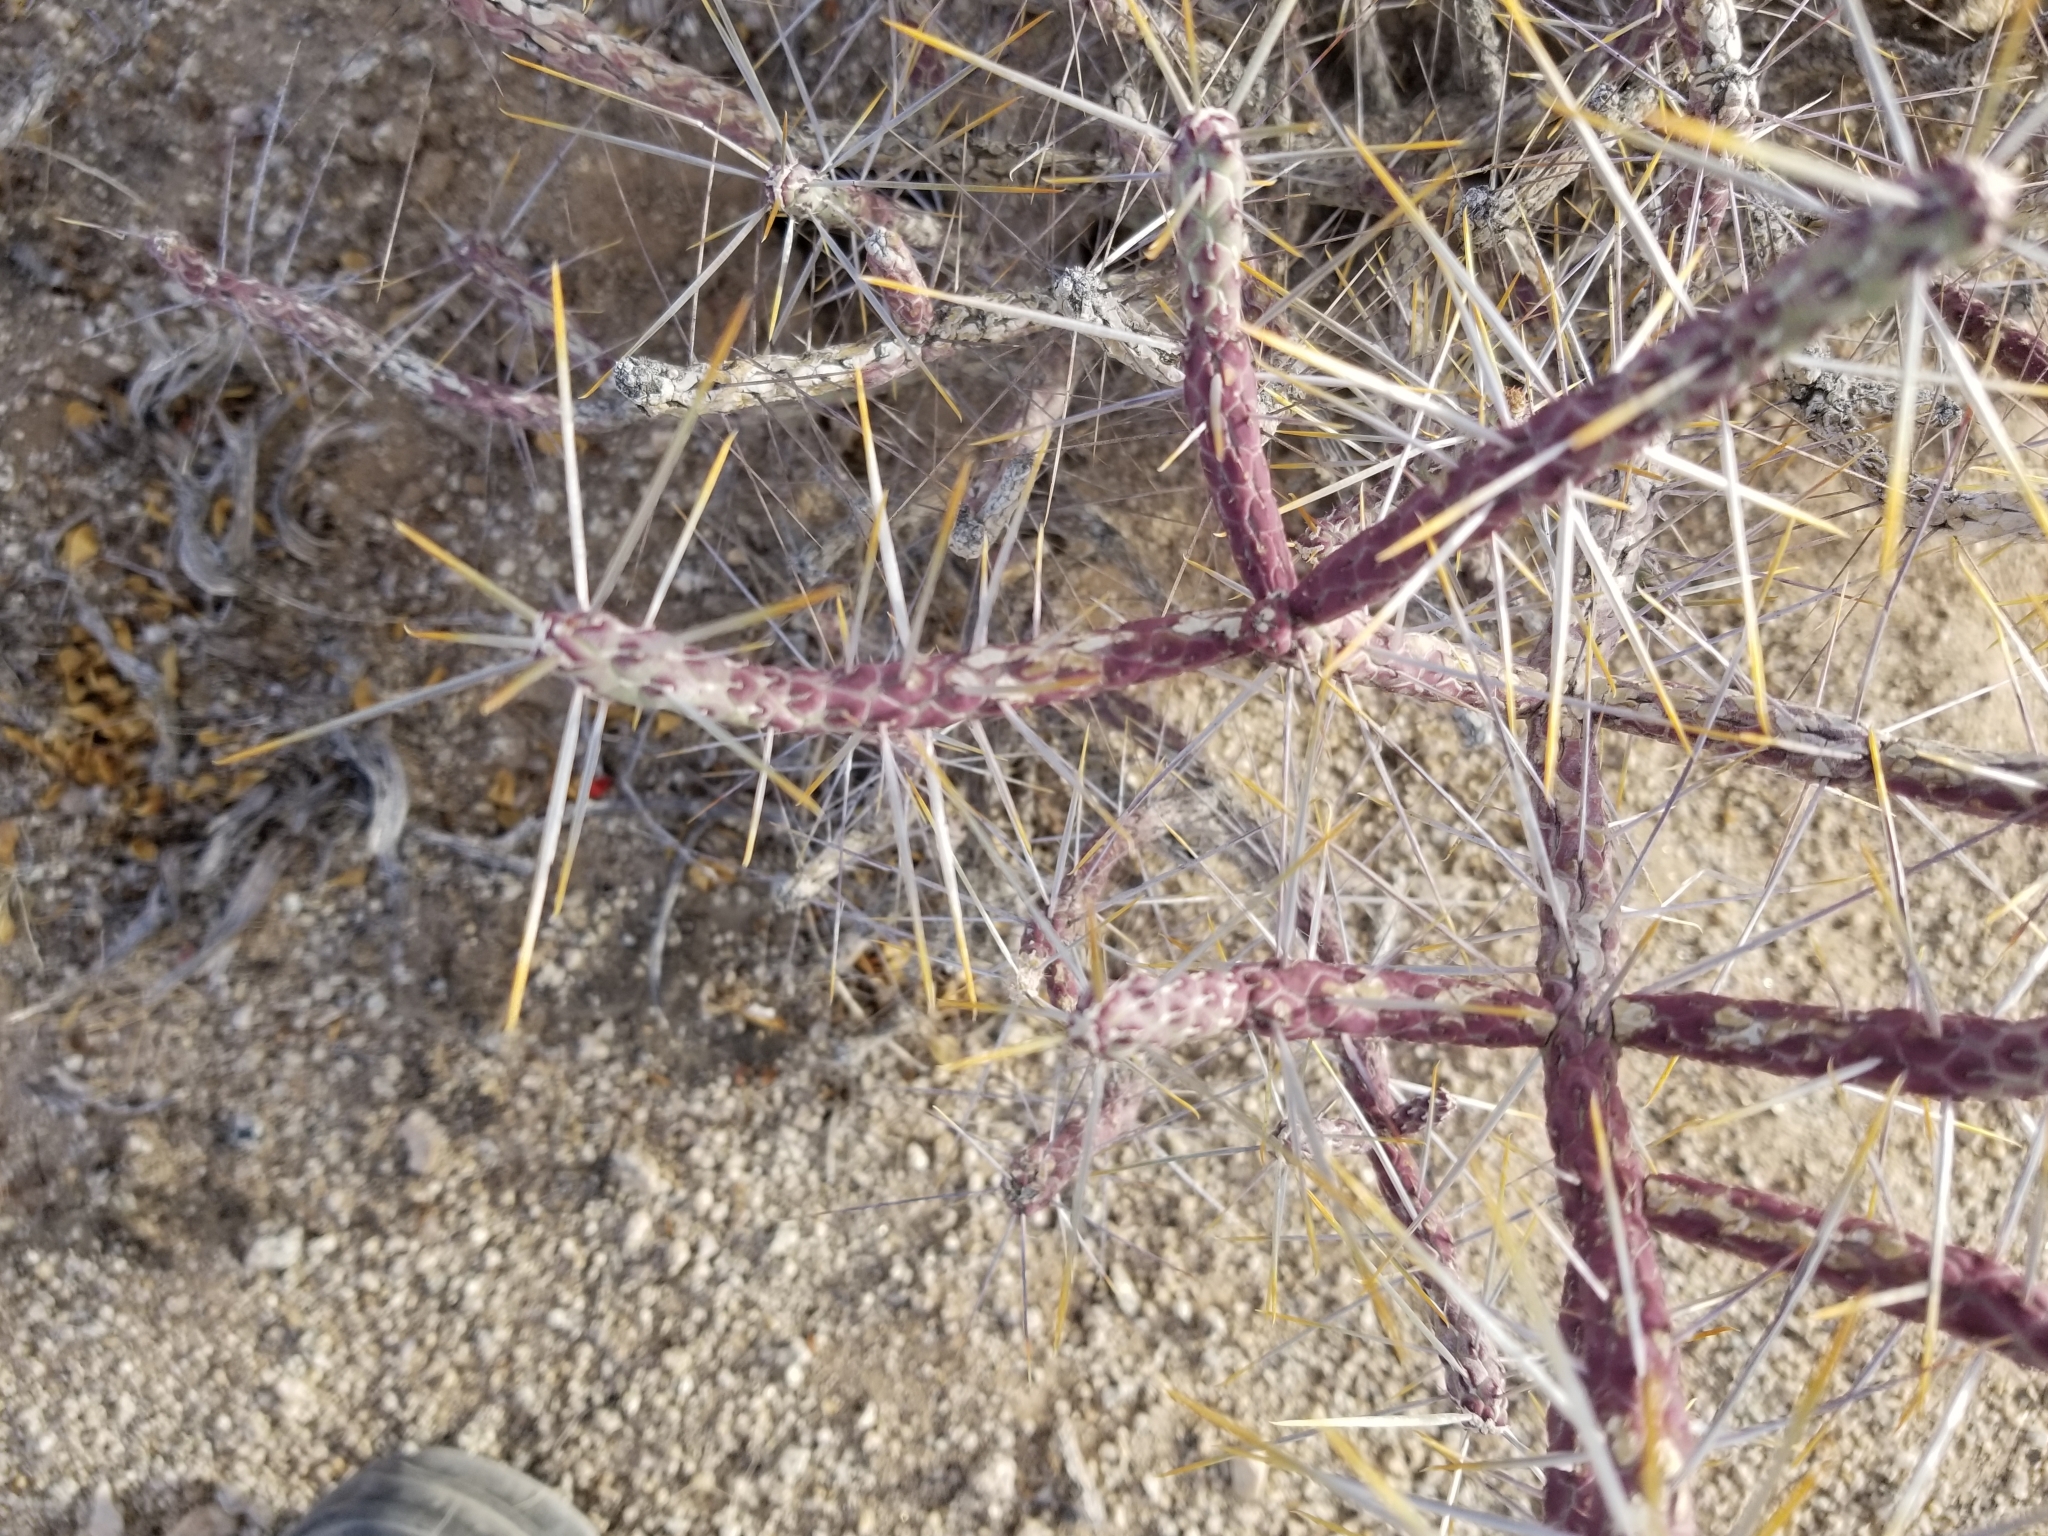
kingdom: Plantae
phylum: Tracheophyta
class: Magnoliopsida
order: Caryophyllales
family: Cactaceae
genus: Cylindropuntia
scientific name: Cylindropuntia ramosissima
